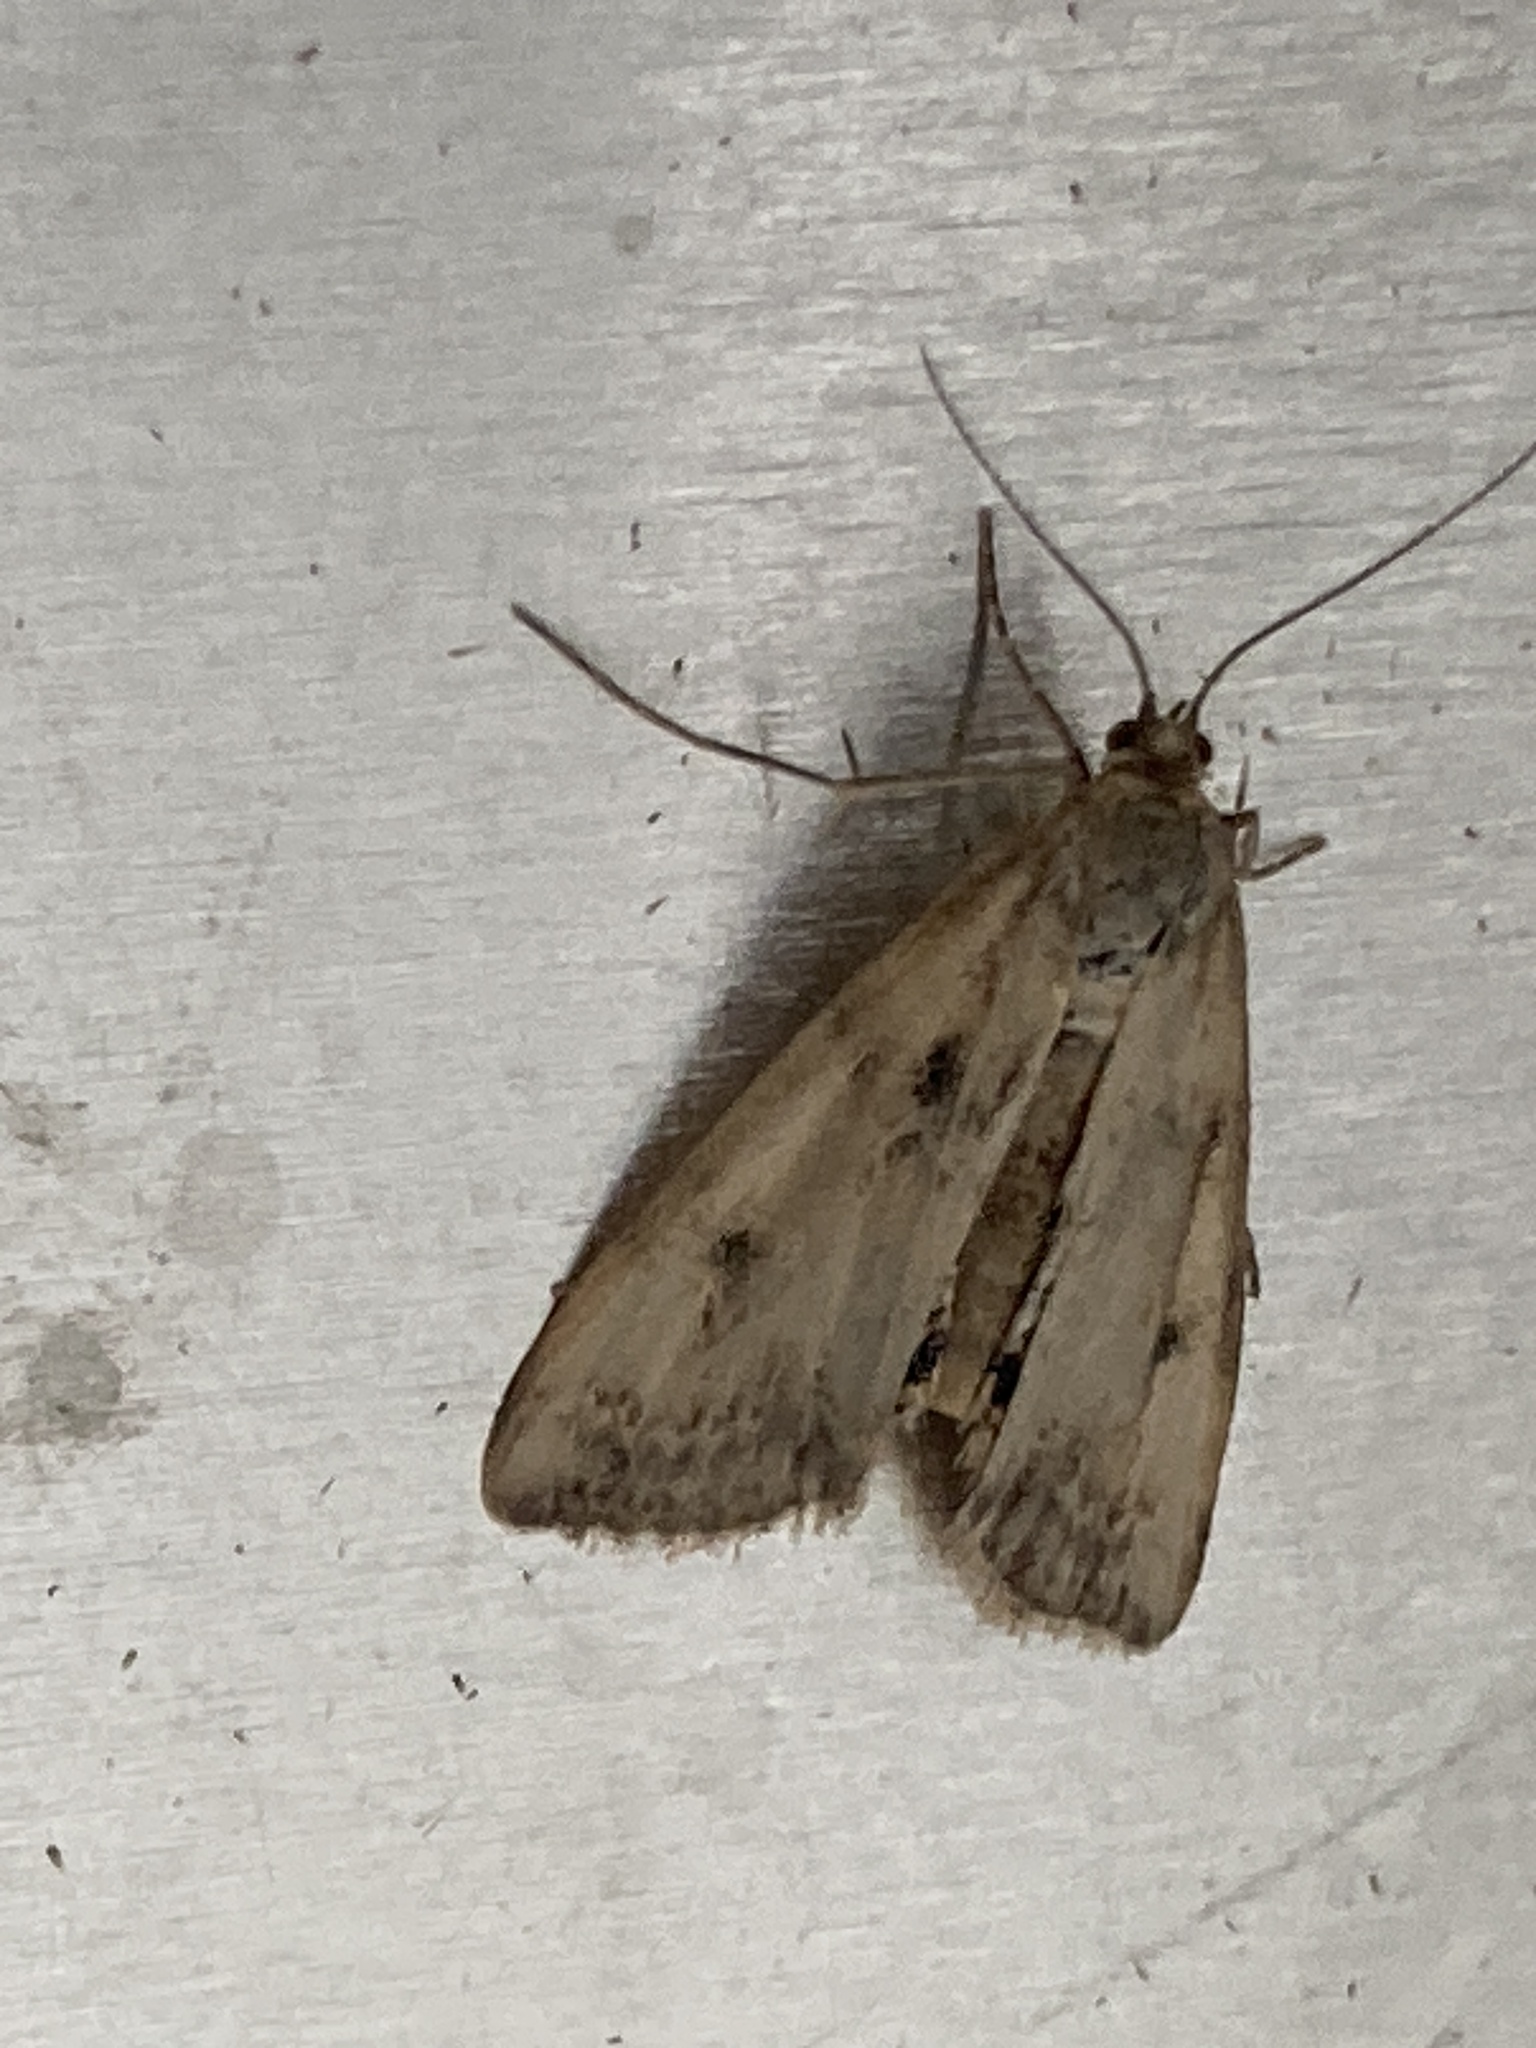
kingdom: Animalia
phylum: Arthropoda
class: Insecta
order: Lepidoptera
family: Crambidae
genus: Cataclysta
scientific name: Cataclysta lemnata
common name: Small china-mark
